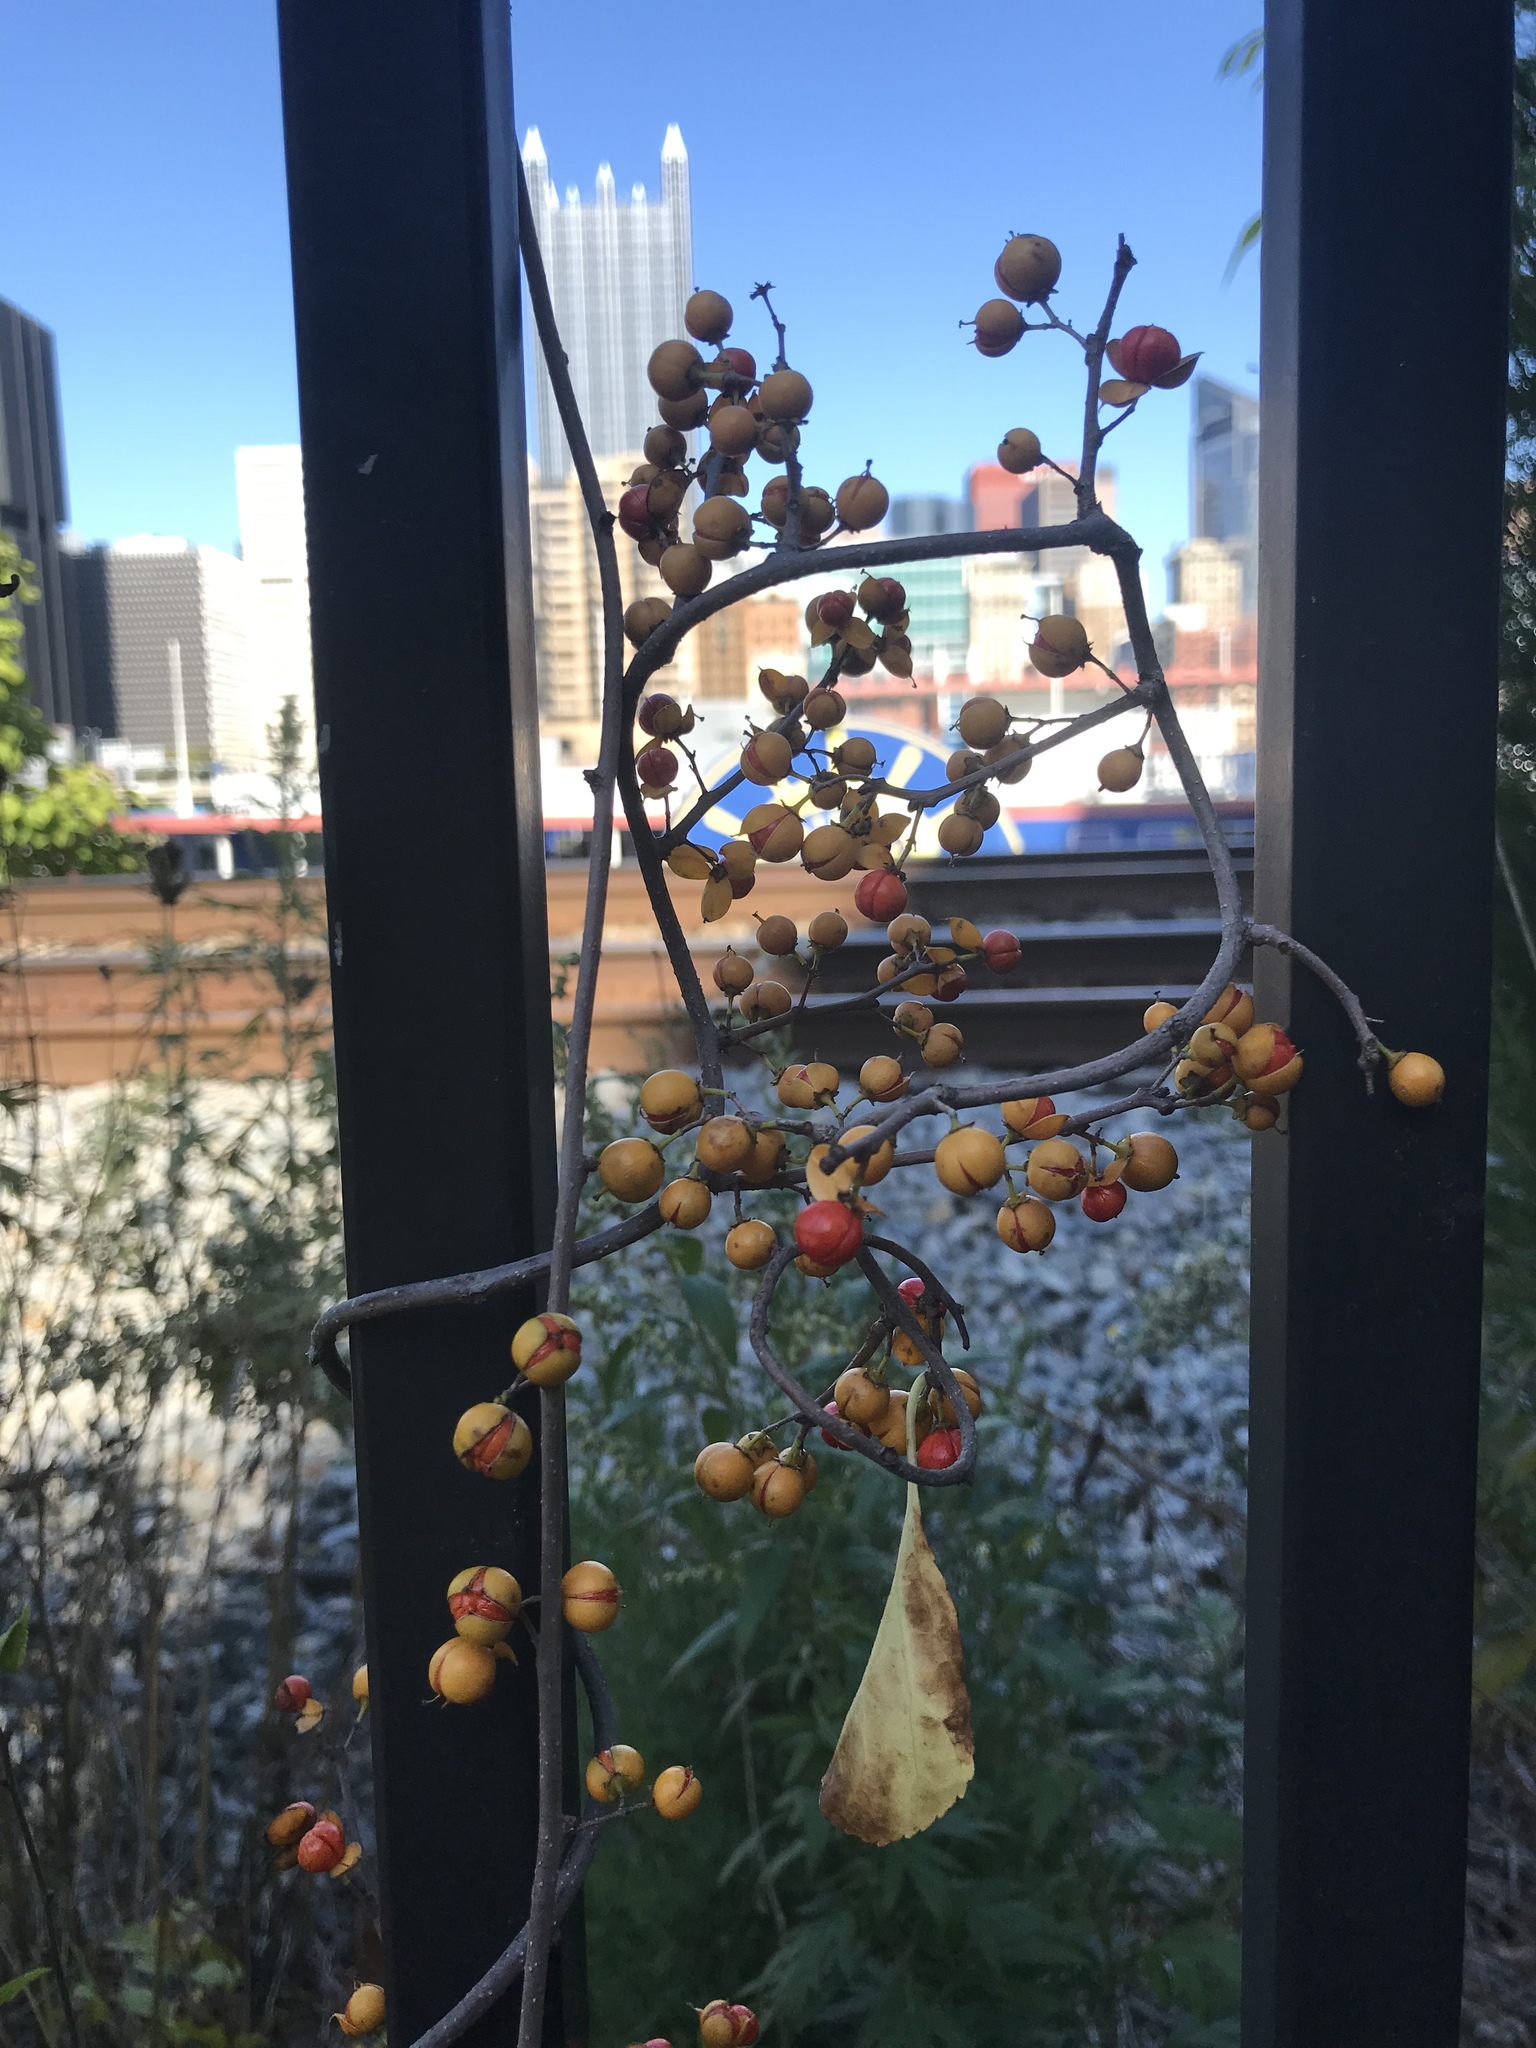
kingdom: Plantae
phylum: Tracheophyta
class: Magnoliopsida
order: Celastrales
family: Celastraceae
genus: Celastrus
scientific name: Celastrus orbiculatus
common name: Oriental bittersweet
